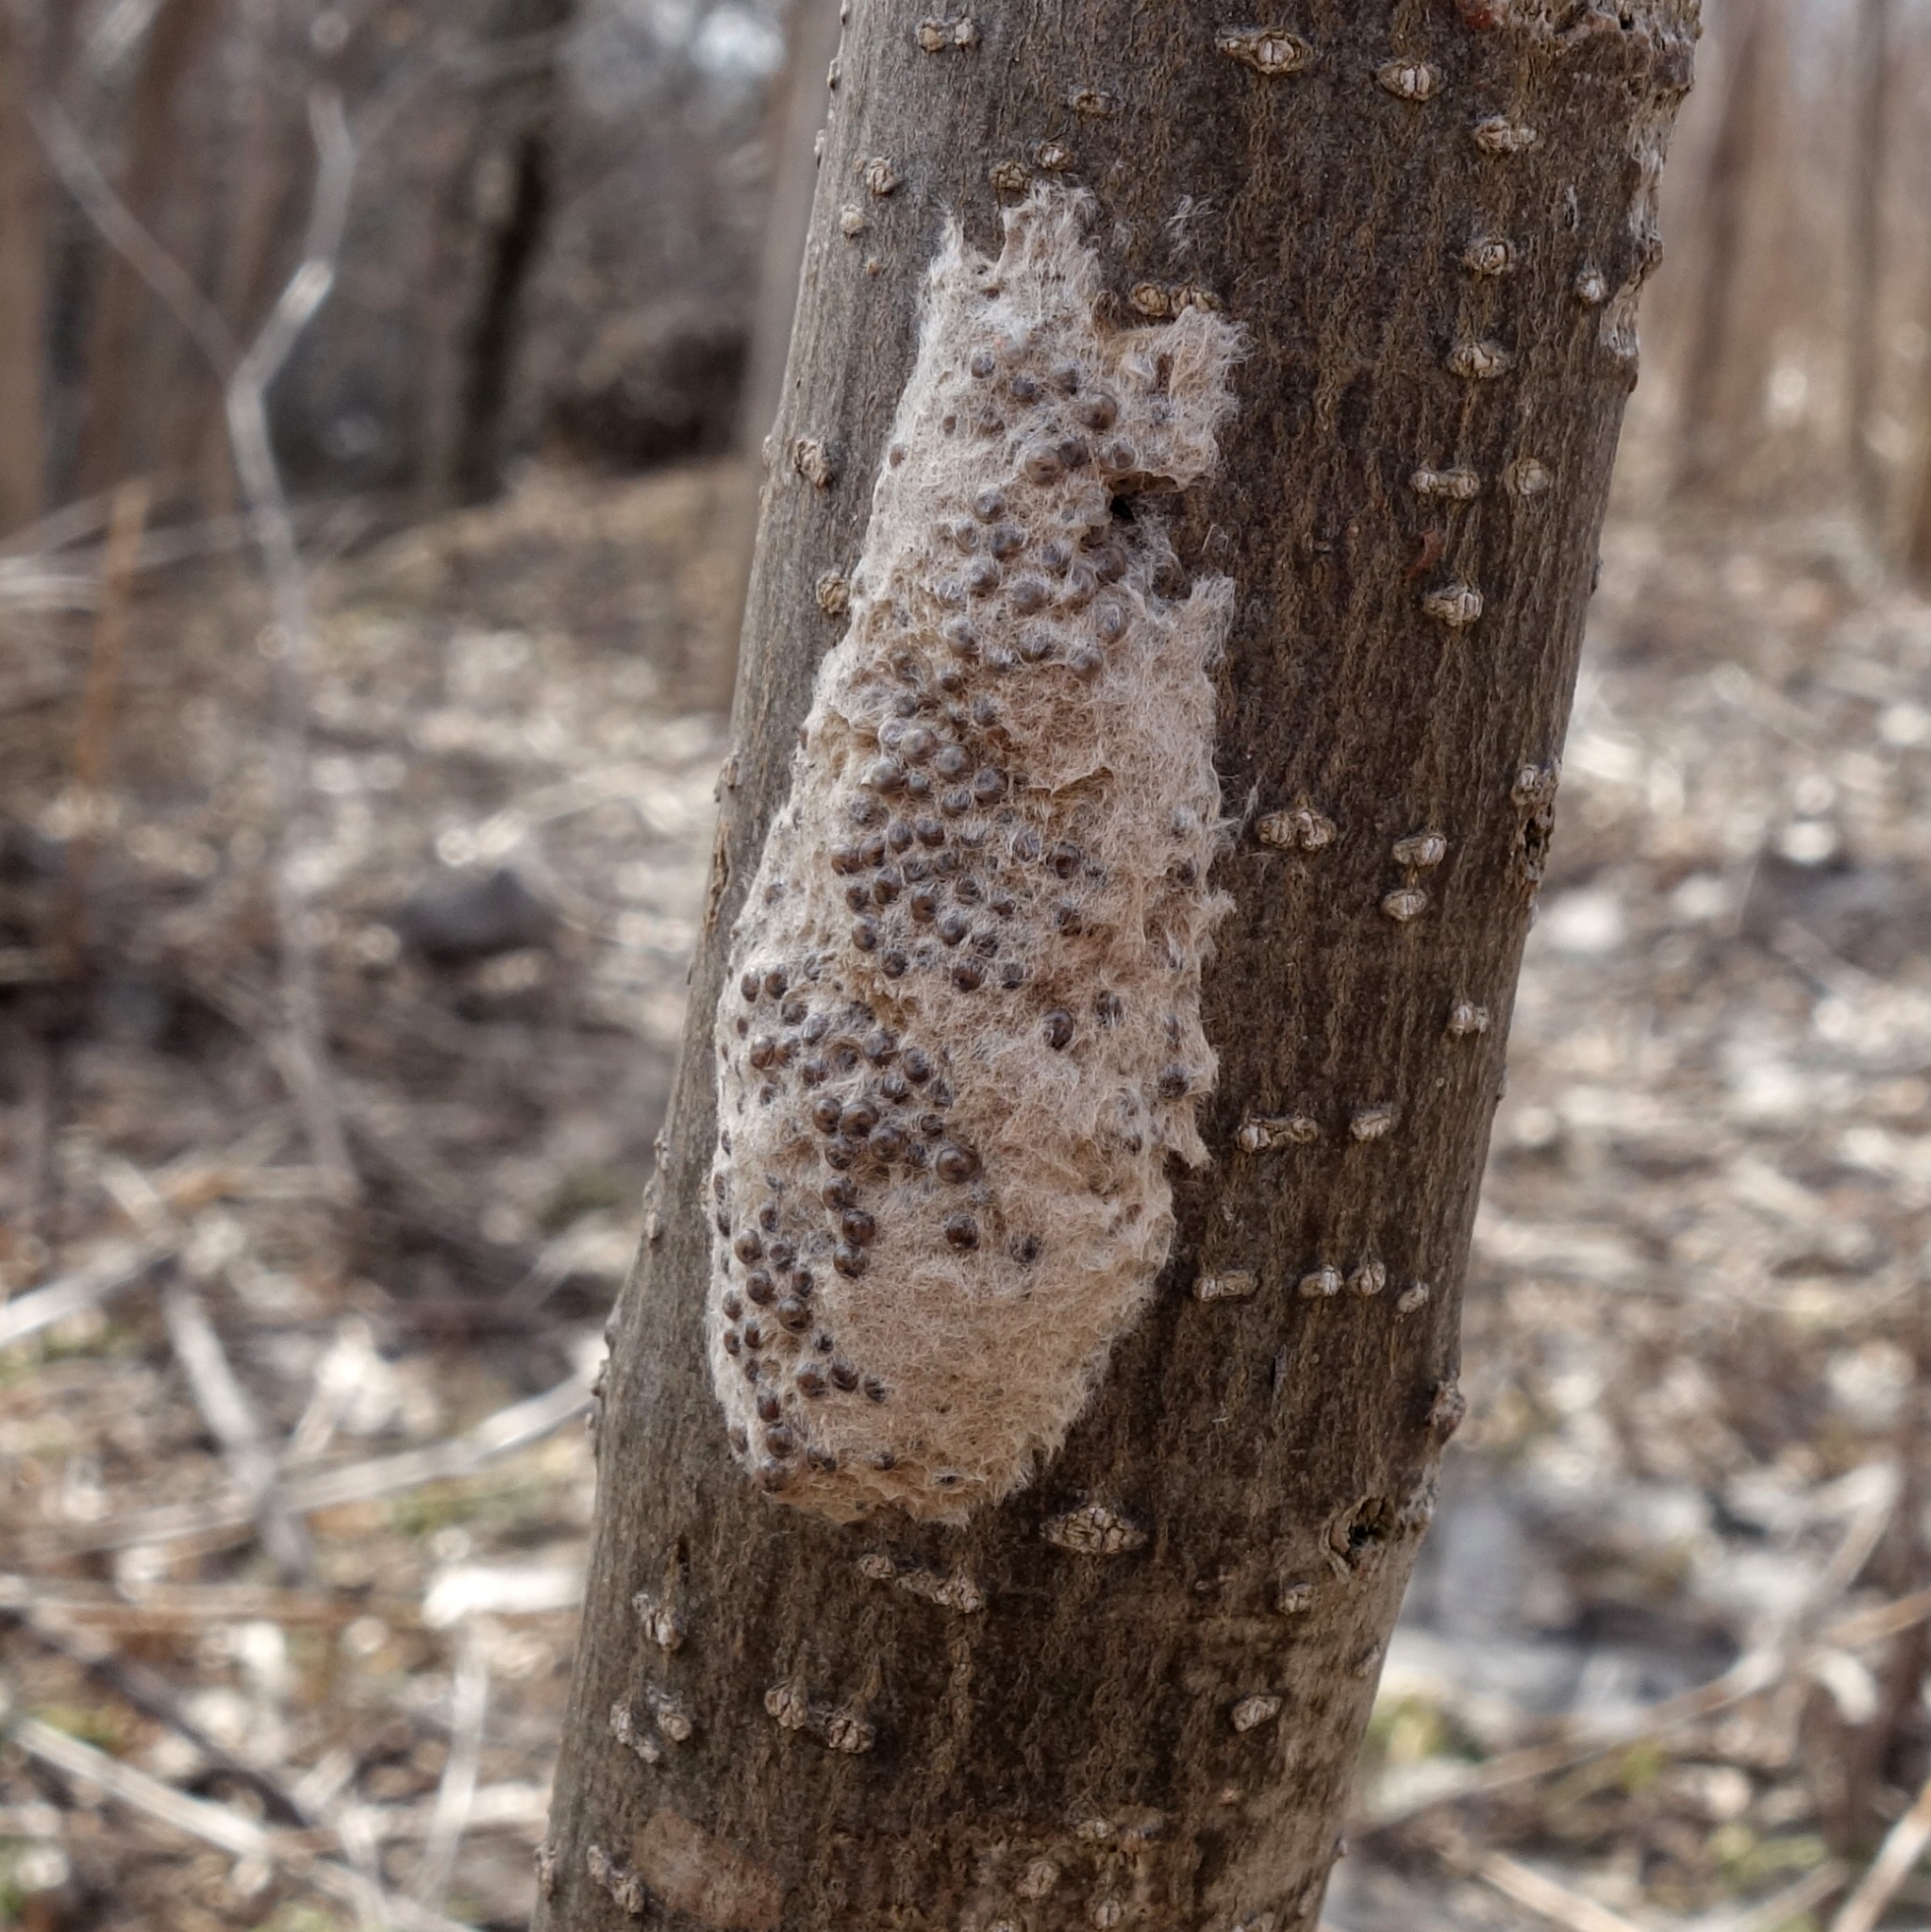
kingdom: Animalia
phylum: Arthropoda
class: Insecta
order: Lepidoptera
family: Erebidae
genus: Lymantria
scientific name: Lymantria dispar
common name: Gypsy moth
